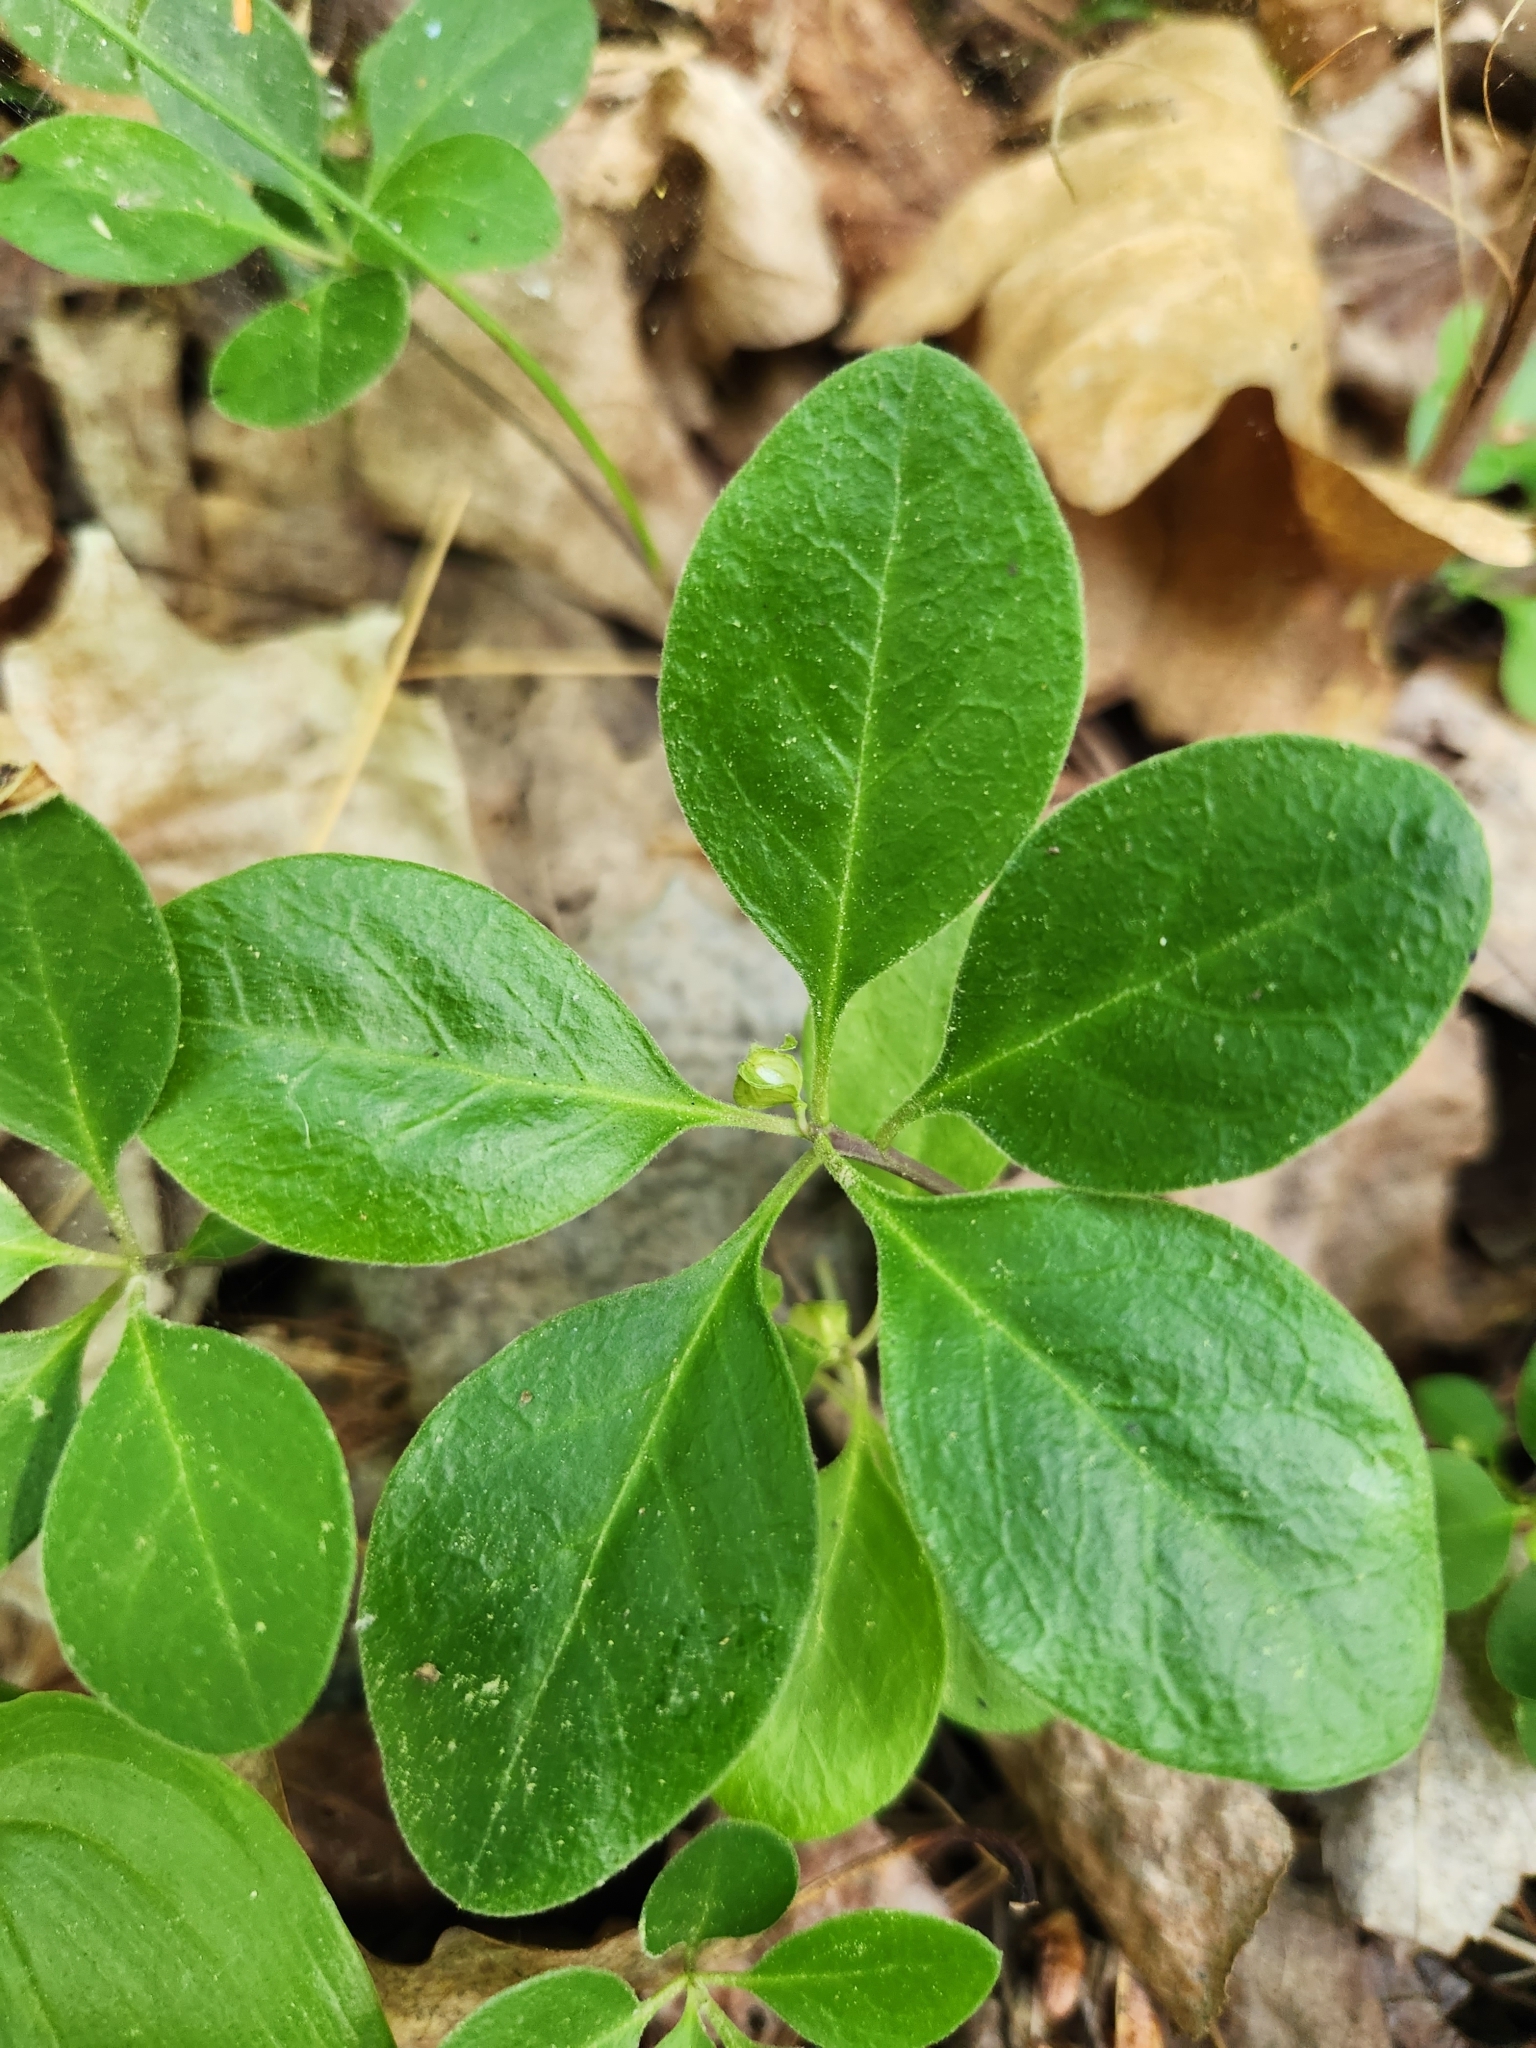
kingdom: Plantae
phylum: Tracheophyta
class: Magnoliopsida
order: Fabales
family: Polygalaceae
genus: Polygaloides
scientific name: Polygaloides paucifolia
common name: Bird-on-the-wing
